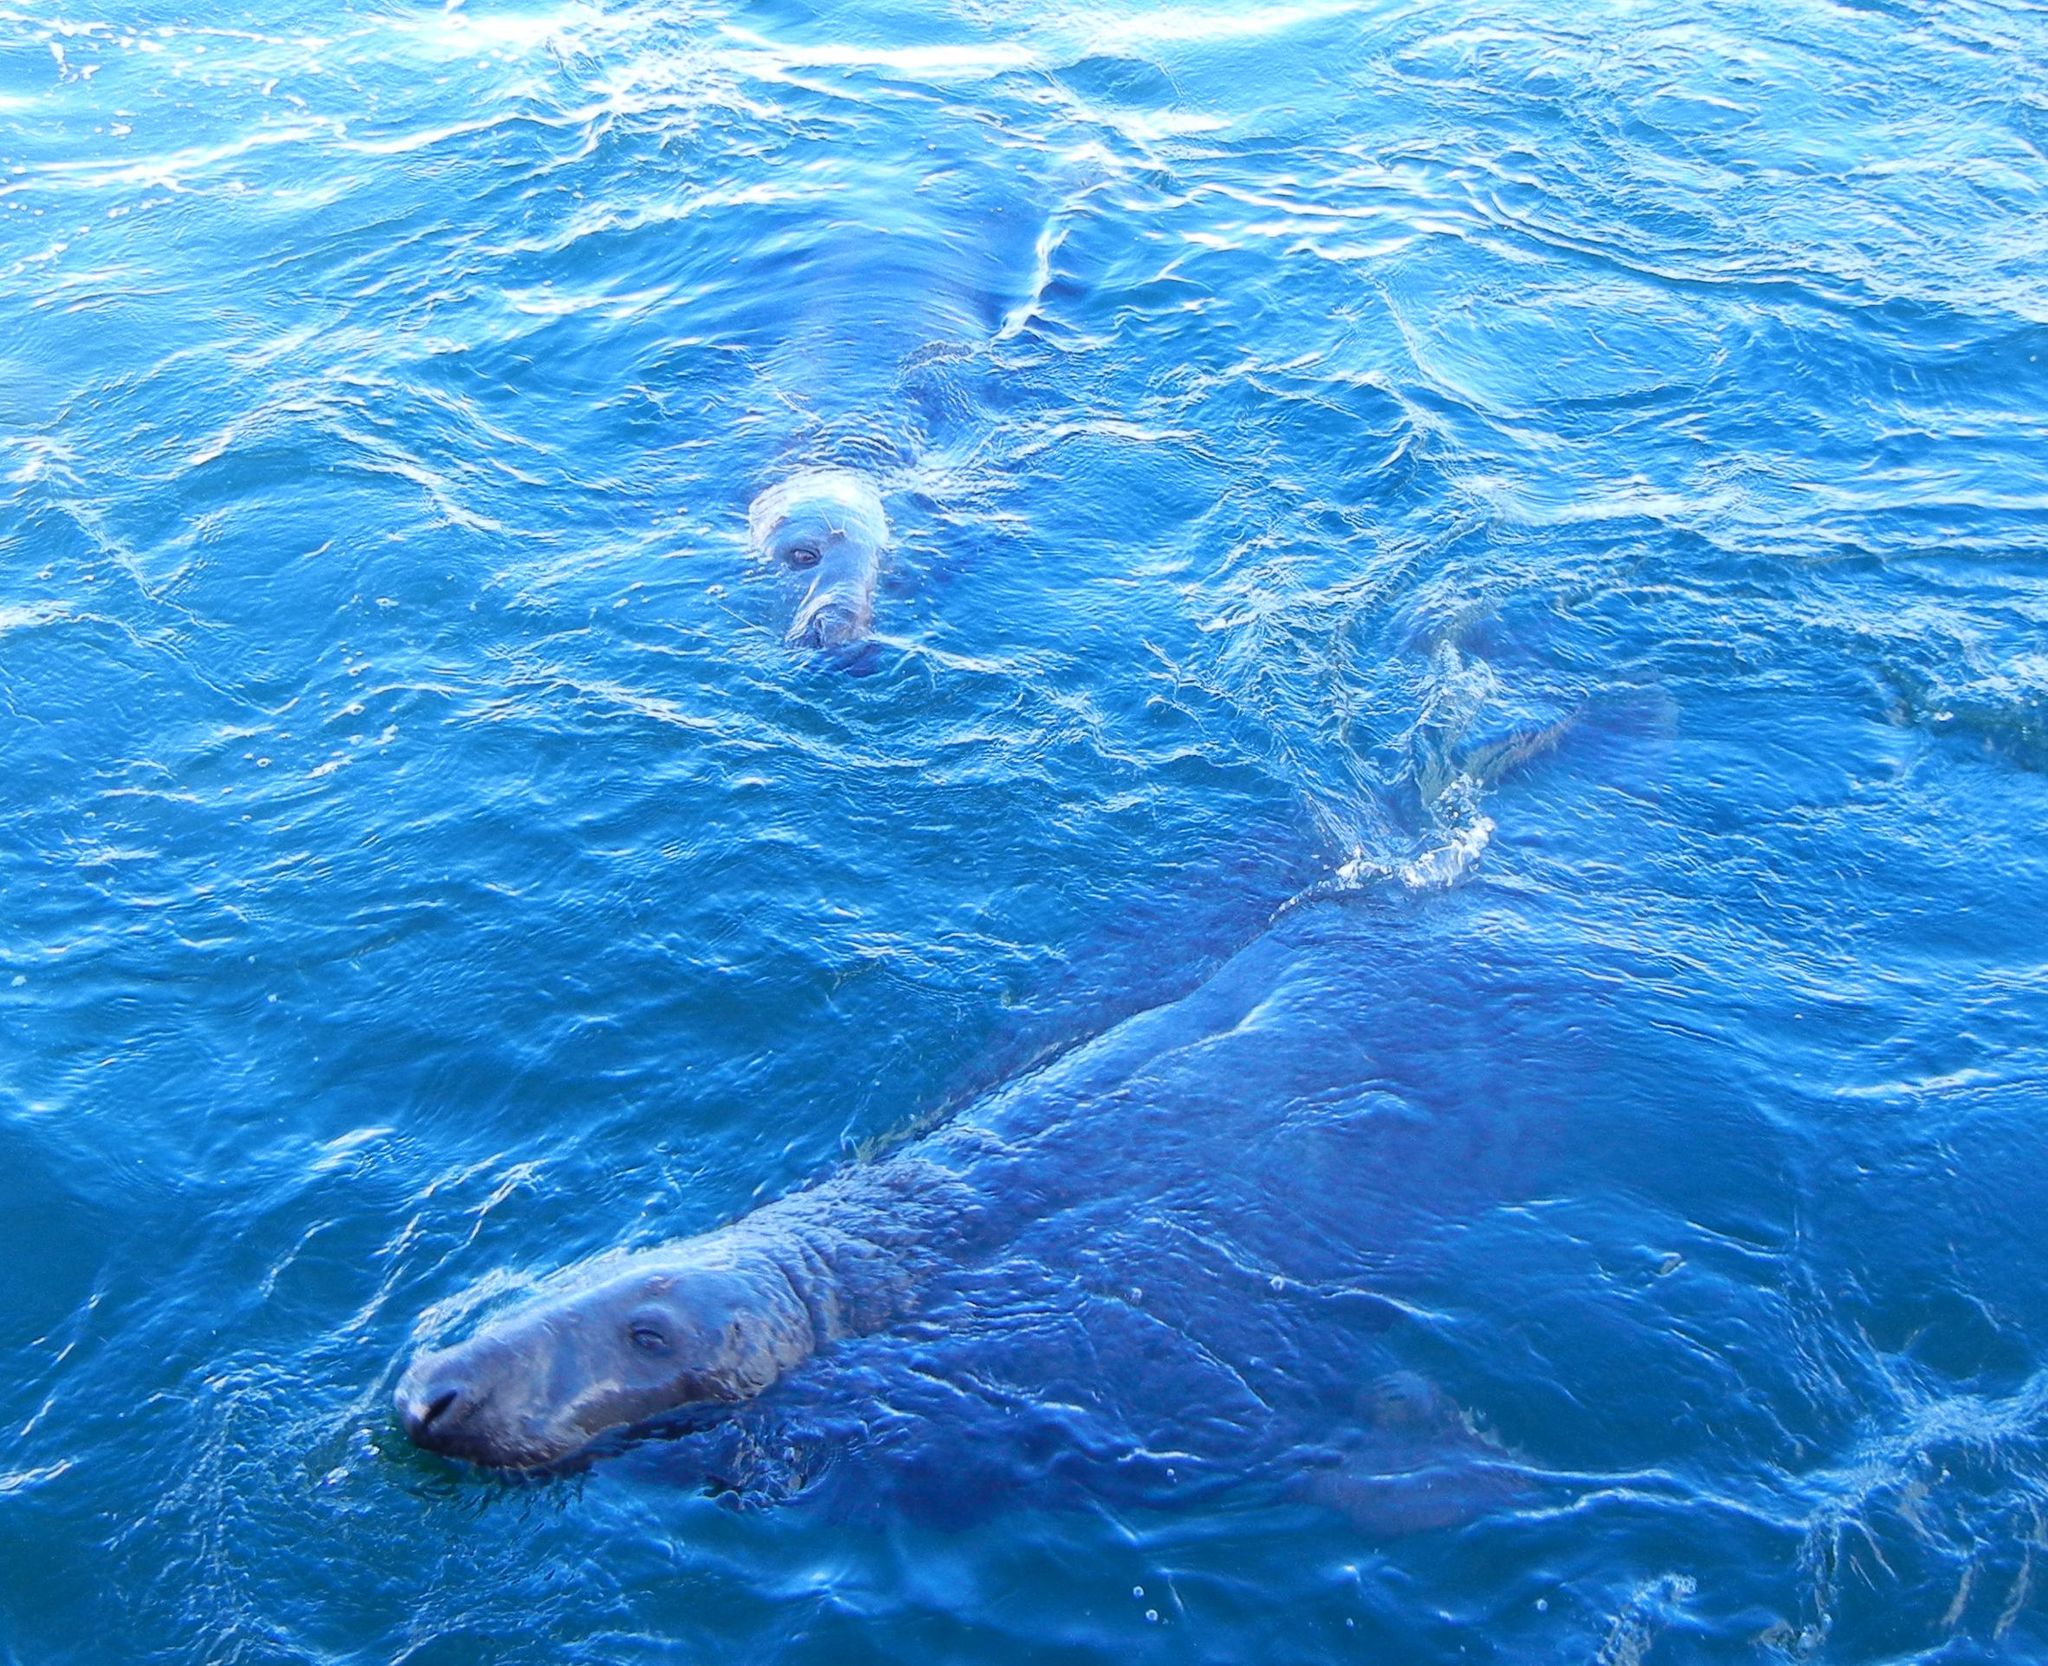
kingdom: Animalia
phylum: Chordata
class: Mammalia
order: Carnivora
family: Phocidae
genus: Halichoerus
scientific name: Halichoerus grypus
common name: Grey seal
